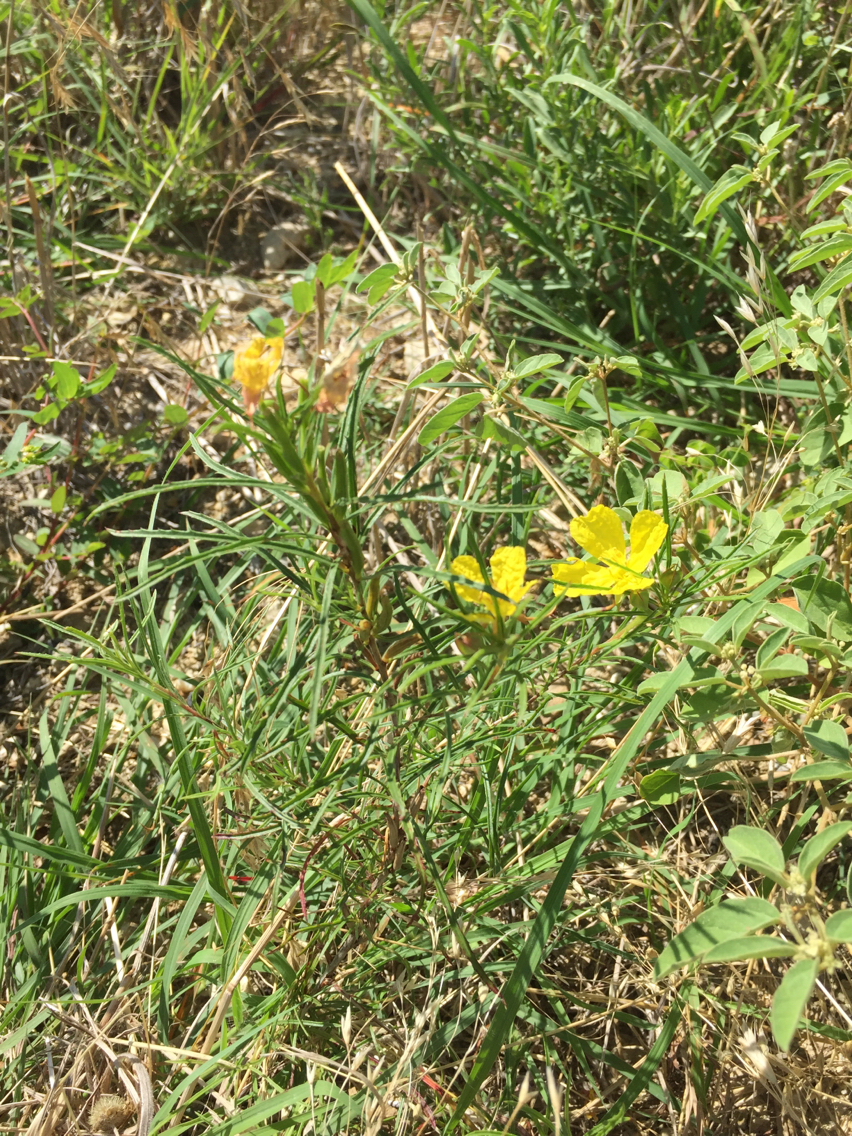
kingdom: Plantae
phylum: Tracheophyta
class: Magnoliopsida
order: Myrtales
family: Onagraceae
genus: Oenothera
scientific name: Oenothera
